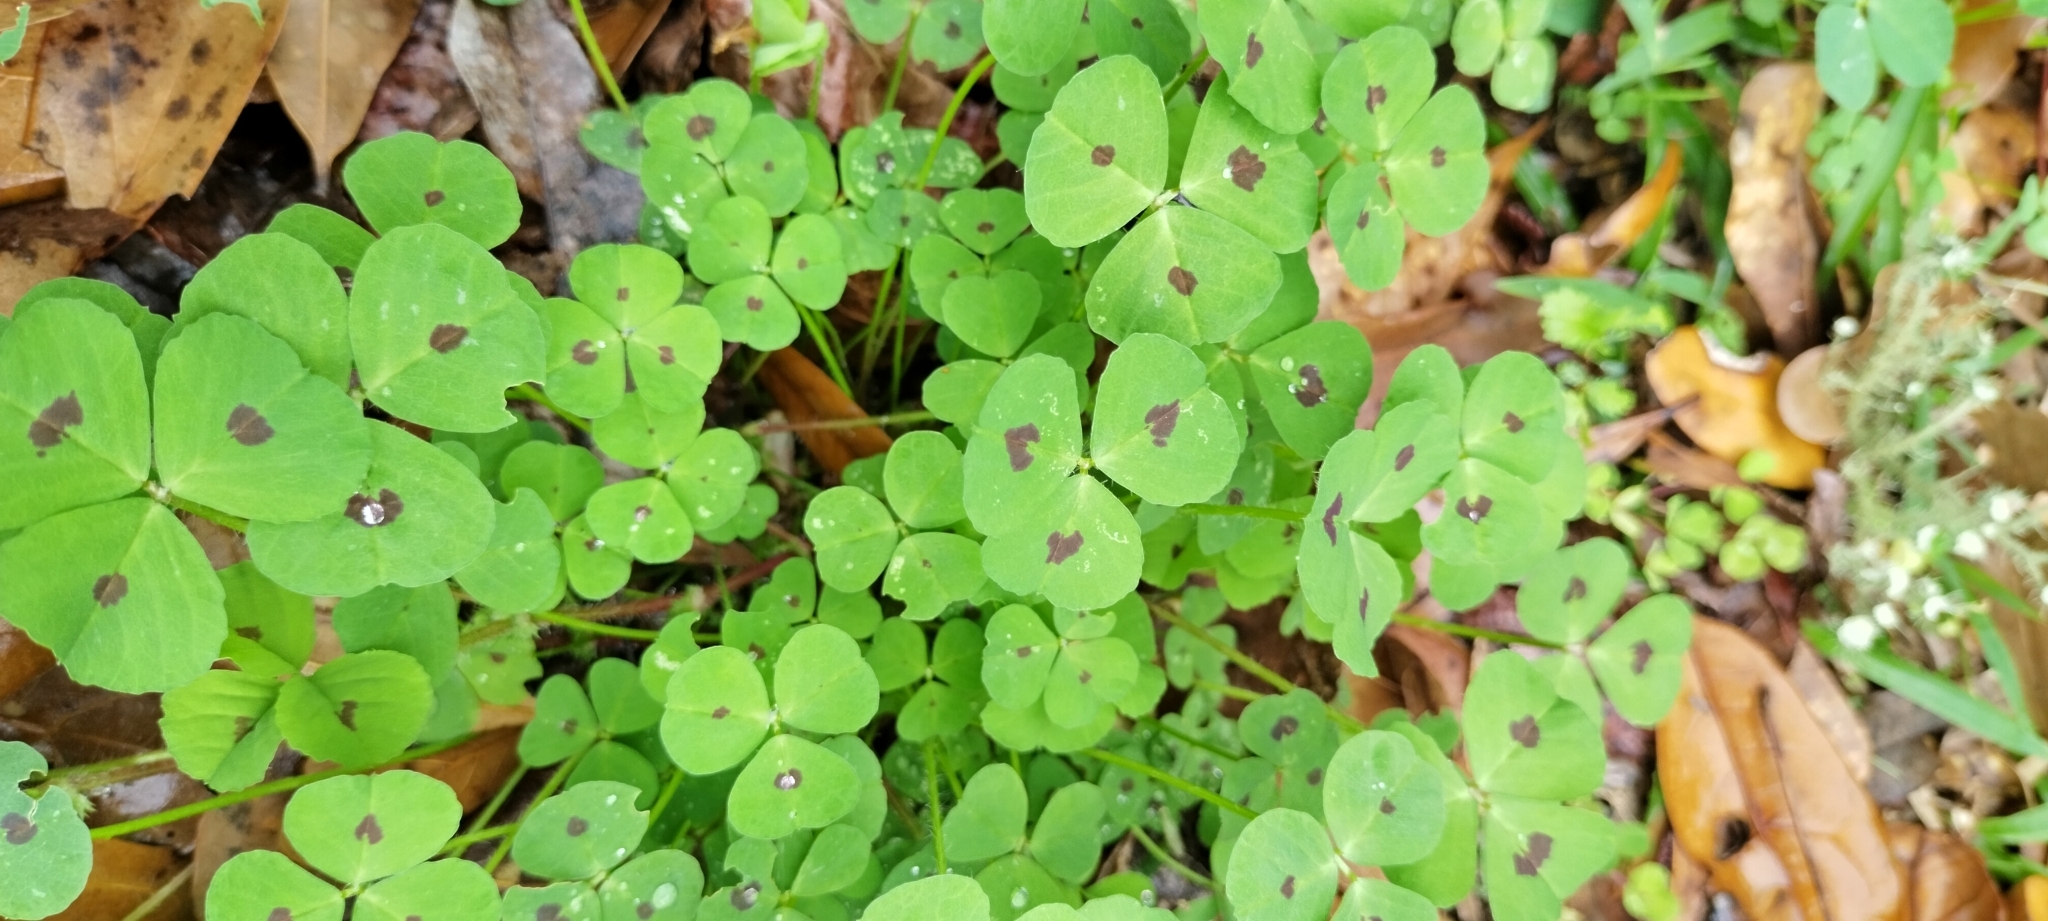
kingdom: Plantae
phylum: Tracheophyta
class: Magnoliopsida
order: Fabales
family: Fabaceae
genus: Medicago
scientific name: Medicago arabica
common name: Spotted medick
